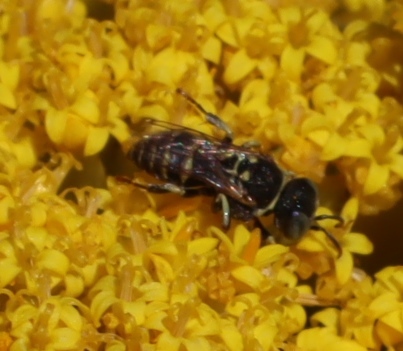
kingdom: Animalia
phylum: Arthropoda
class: Insecta
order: Coleoptera
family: Scarabaeidae
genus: Oxythyrea
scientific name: Oxythyrea
